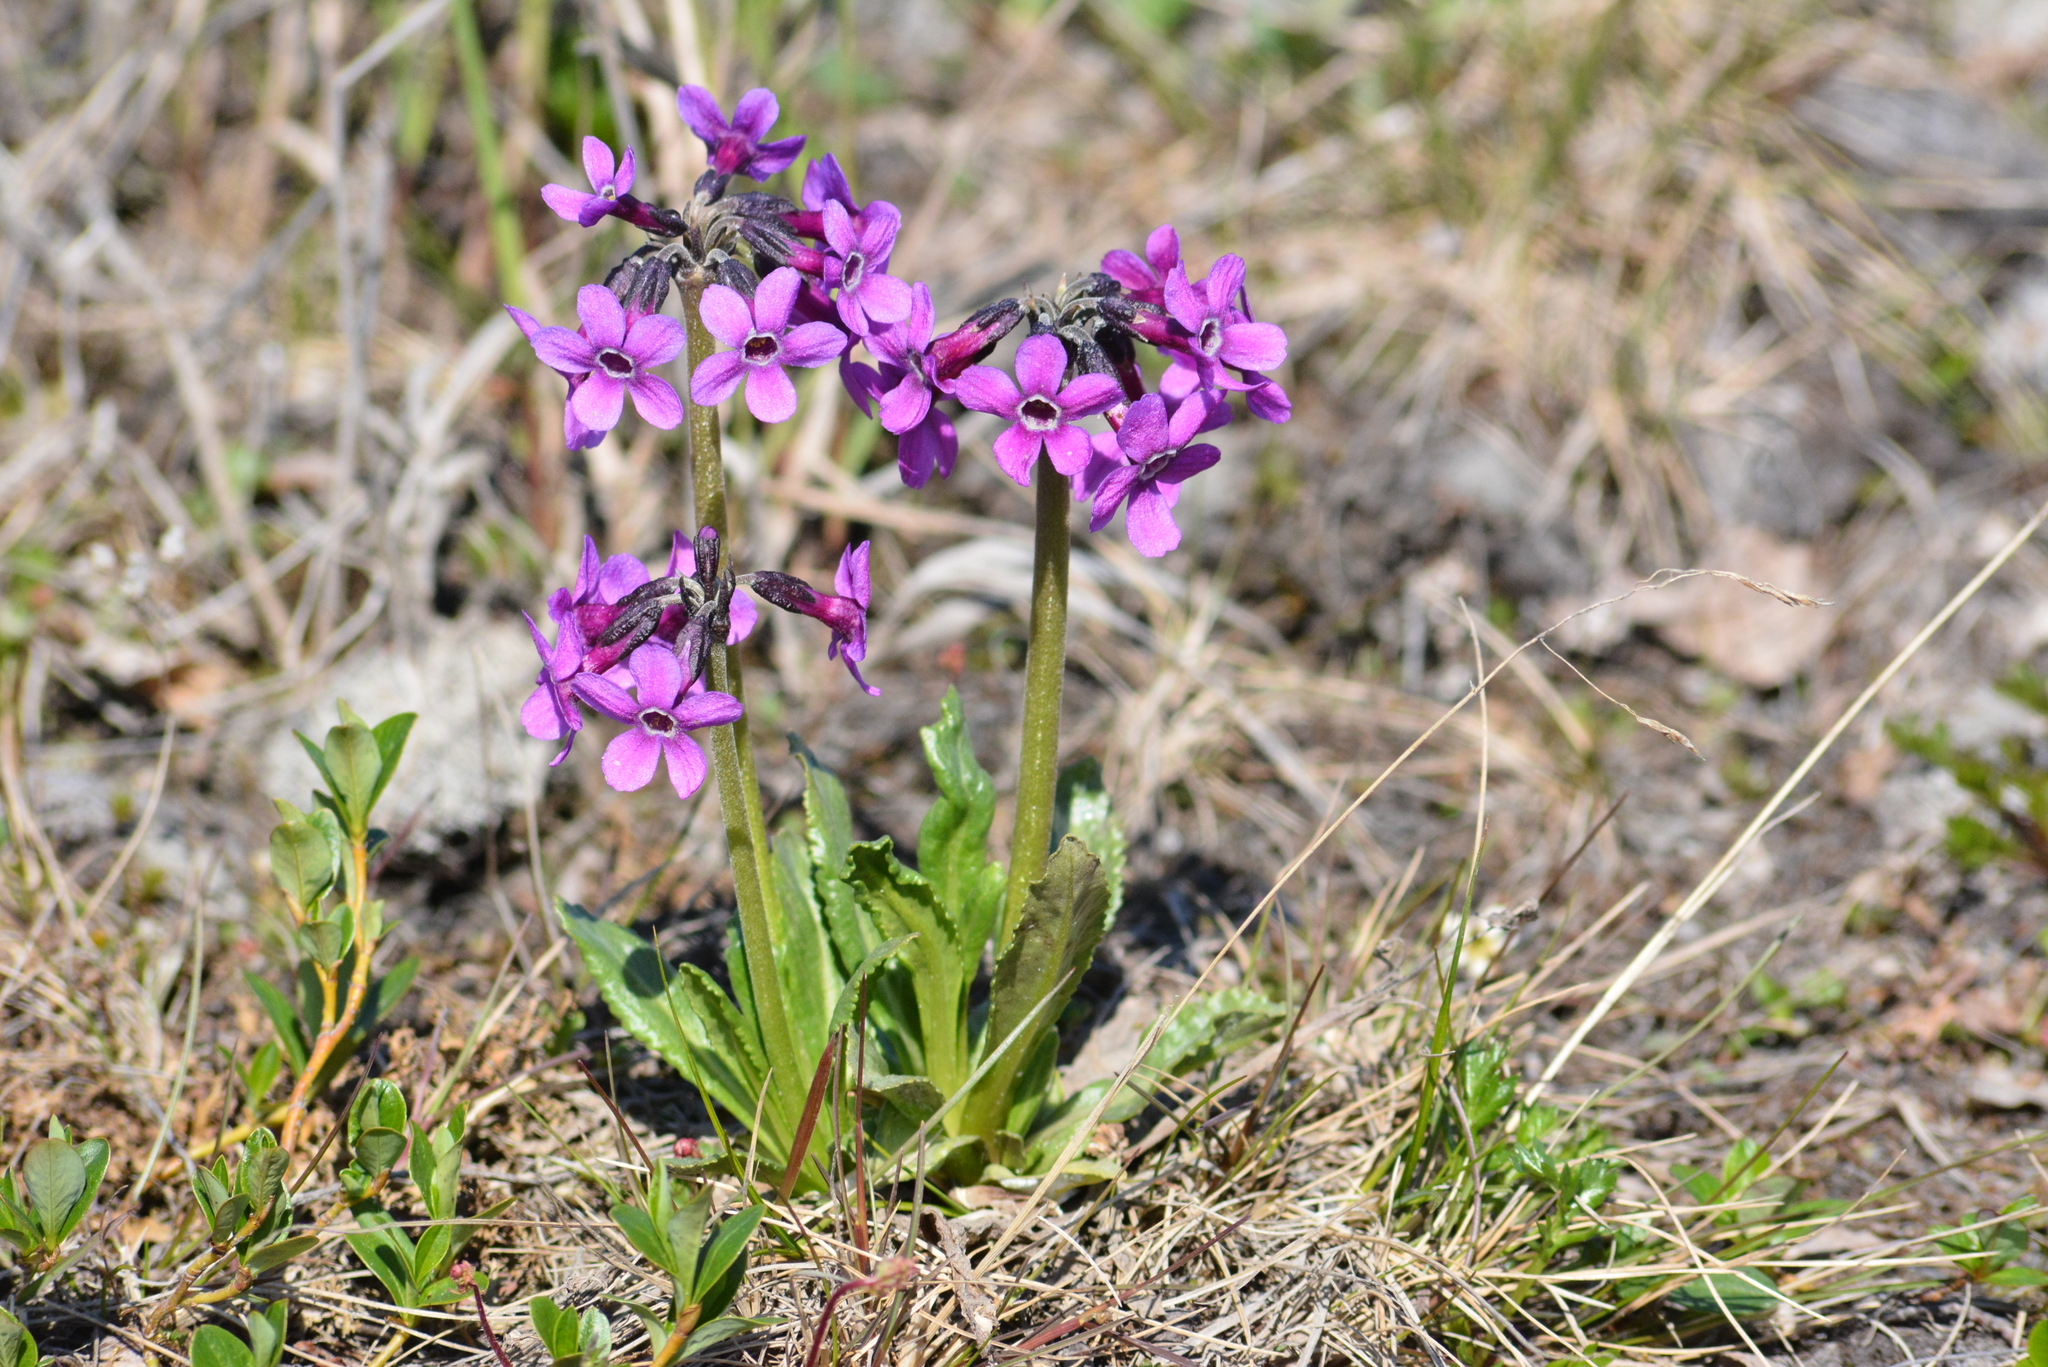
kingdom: Plantae
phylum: Tracheophyta
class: Magnoliopsida
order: Ericales
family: Primulaceae
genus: Primula
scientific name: Primula pumila
